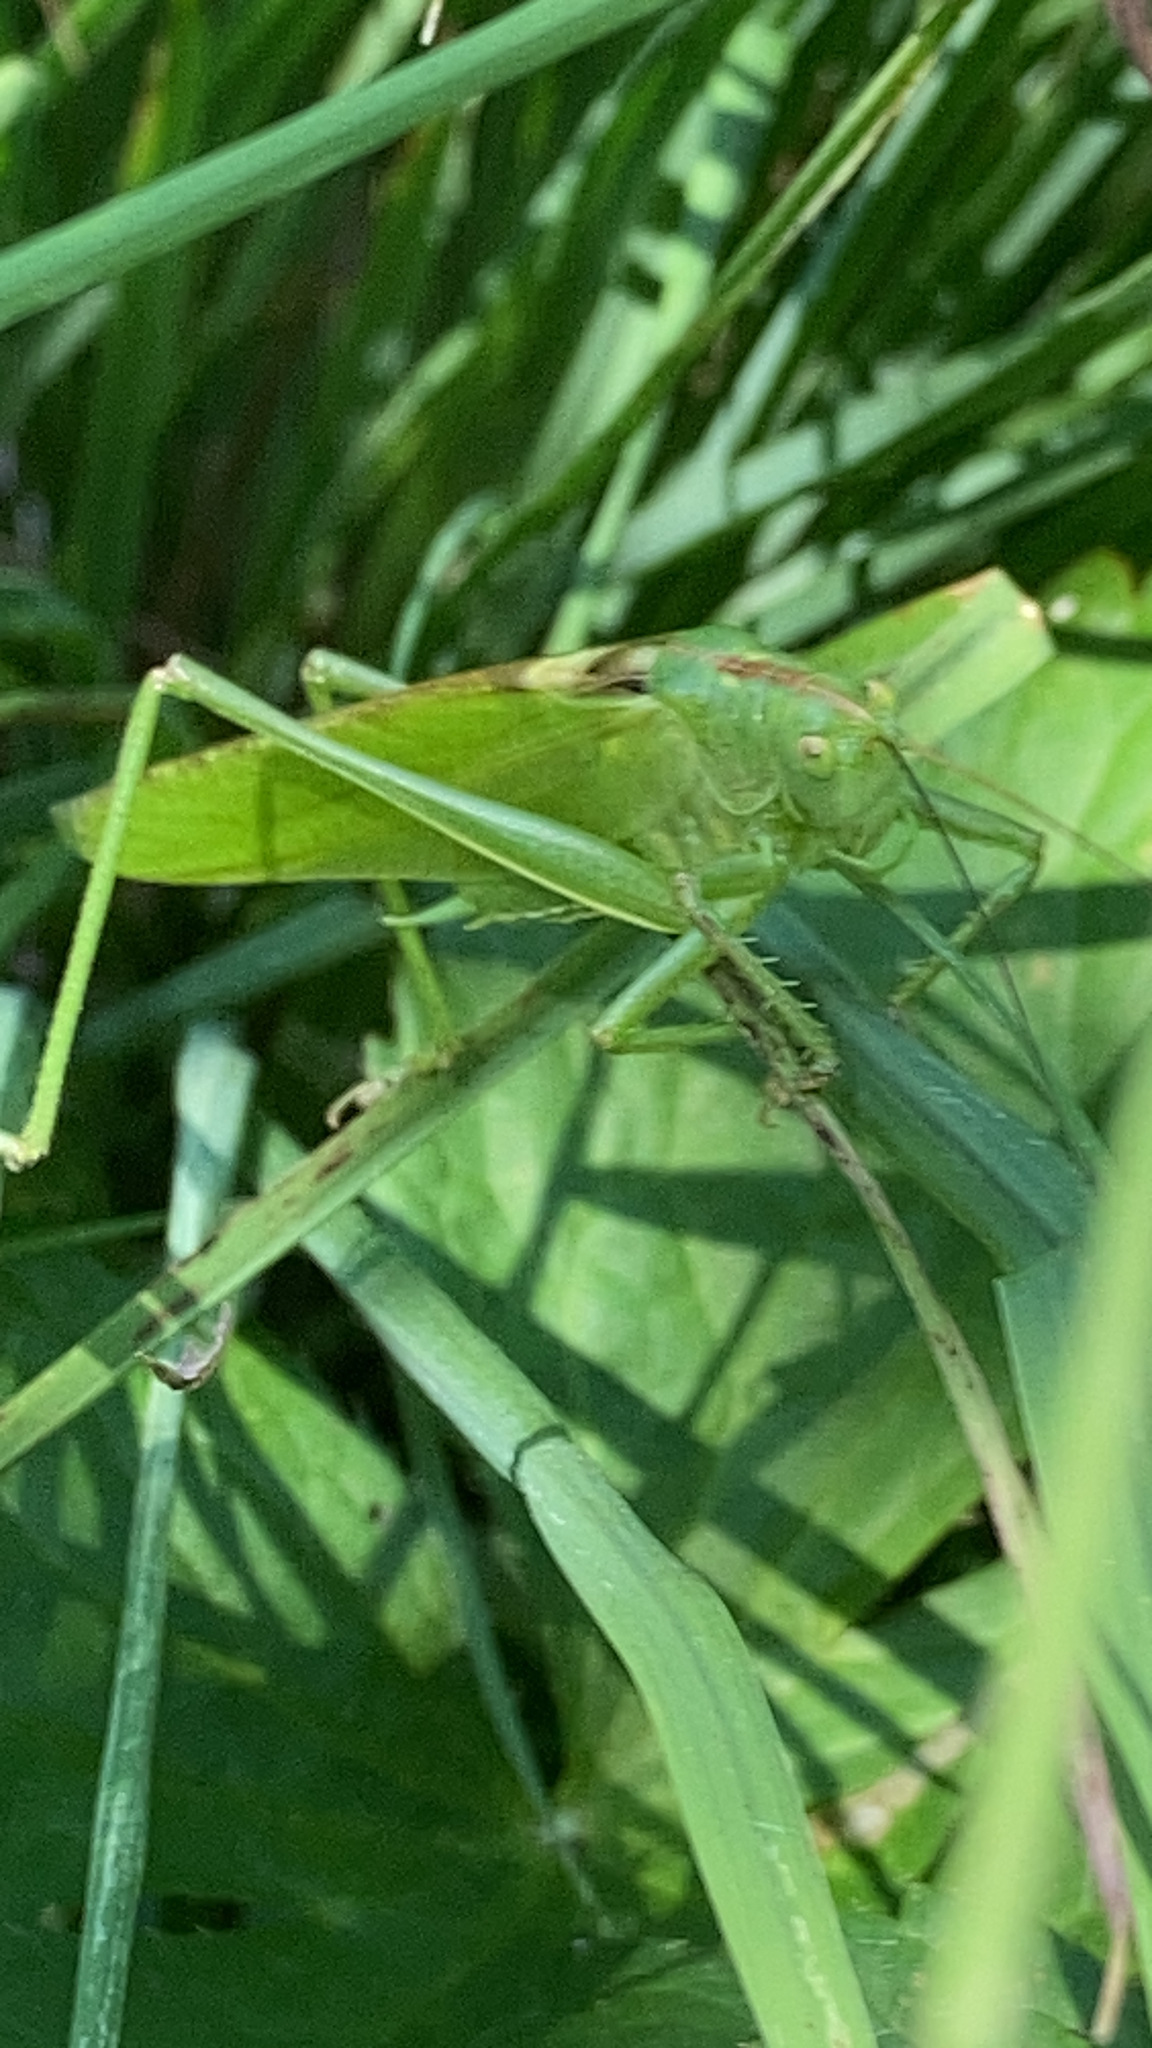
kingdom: Animalia
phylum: Arthropoda
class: Insecta
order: Orthoptera
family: Tettigoniidae
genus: Tettigonia
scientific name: Tettigonia viridissima
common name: Great green bush-cricket
